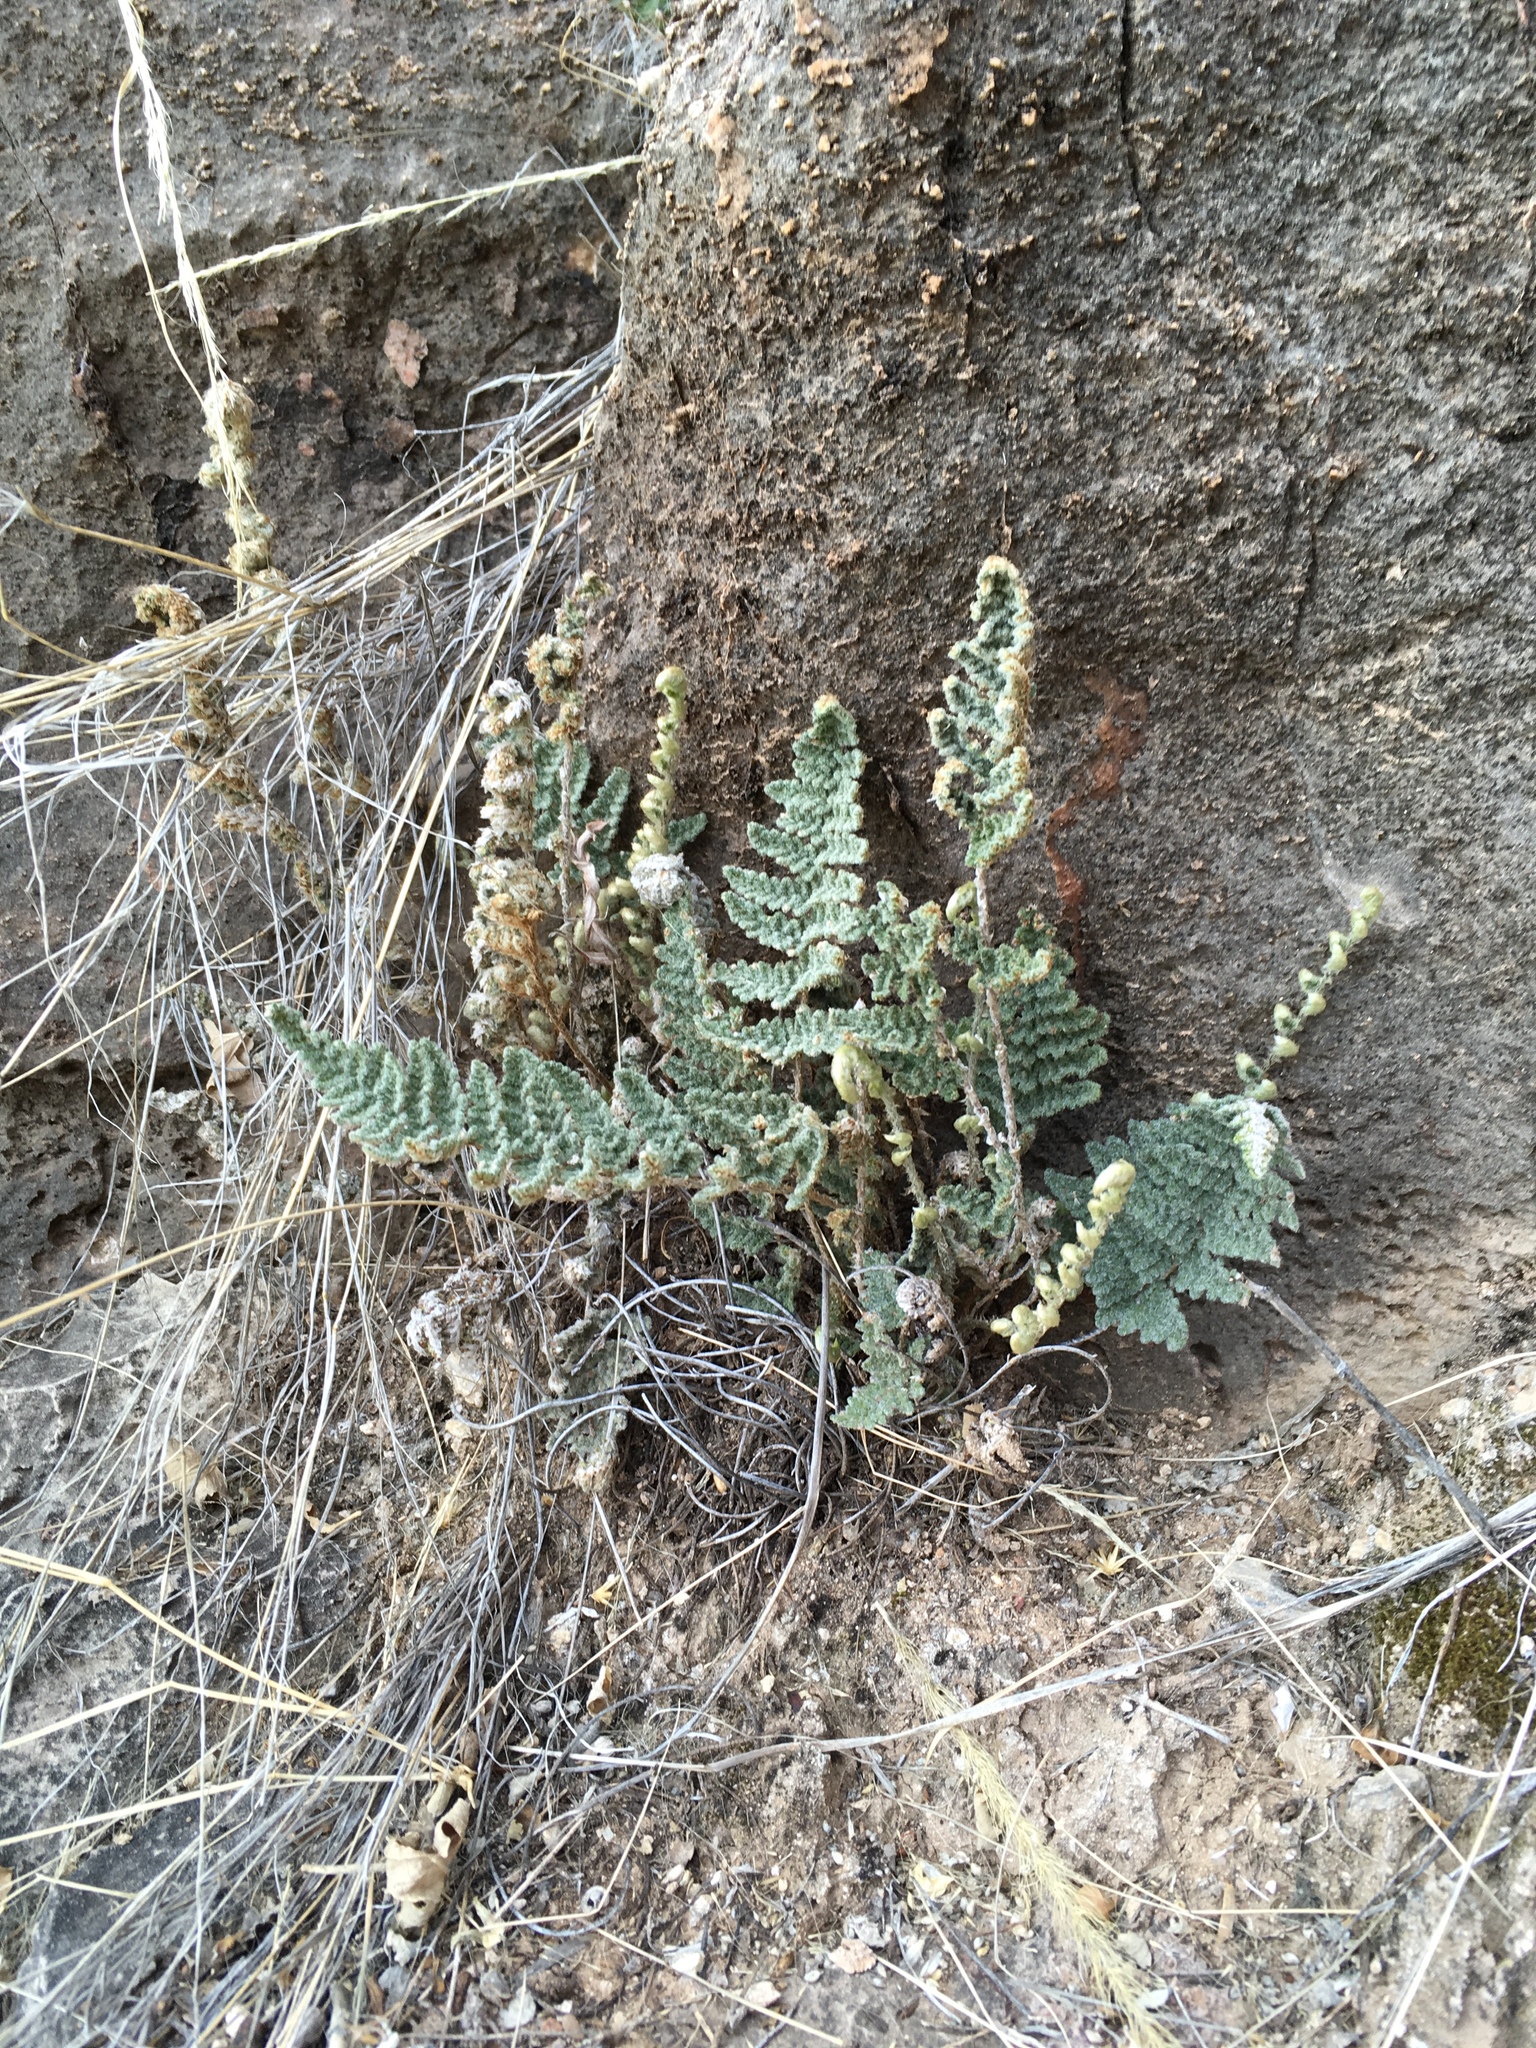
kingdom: Plantae
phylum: Tracheophyta
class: Polypodiopsida
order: Polypodiales
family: Pteridaceae
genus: Myriopteris
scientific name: Myriopteris windhamii
